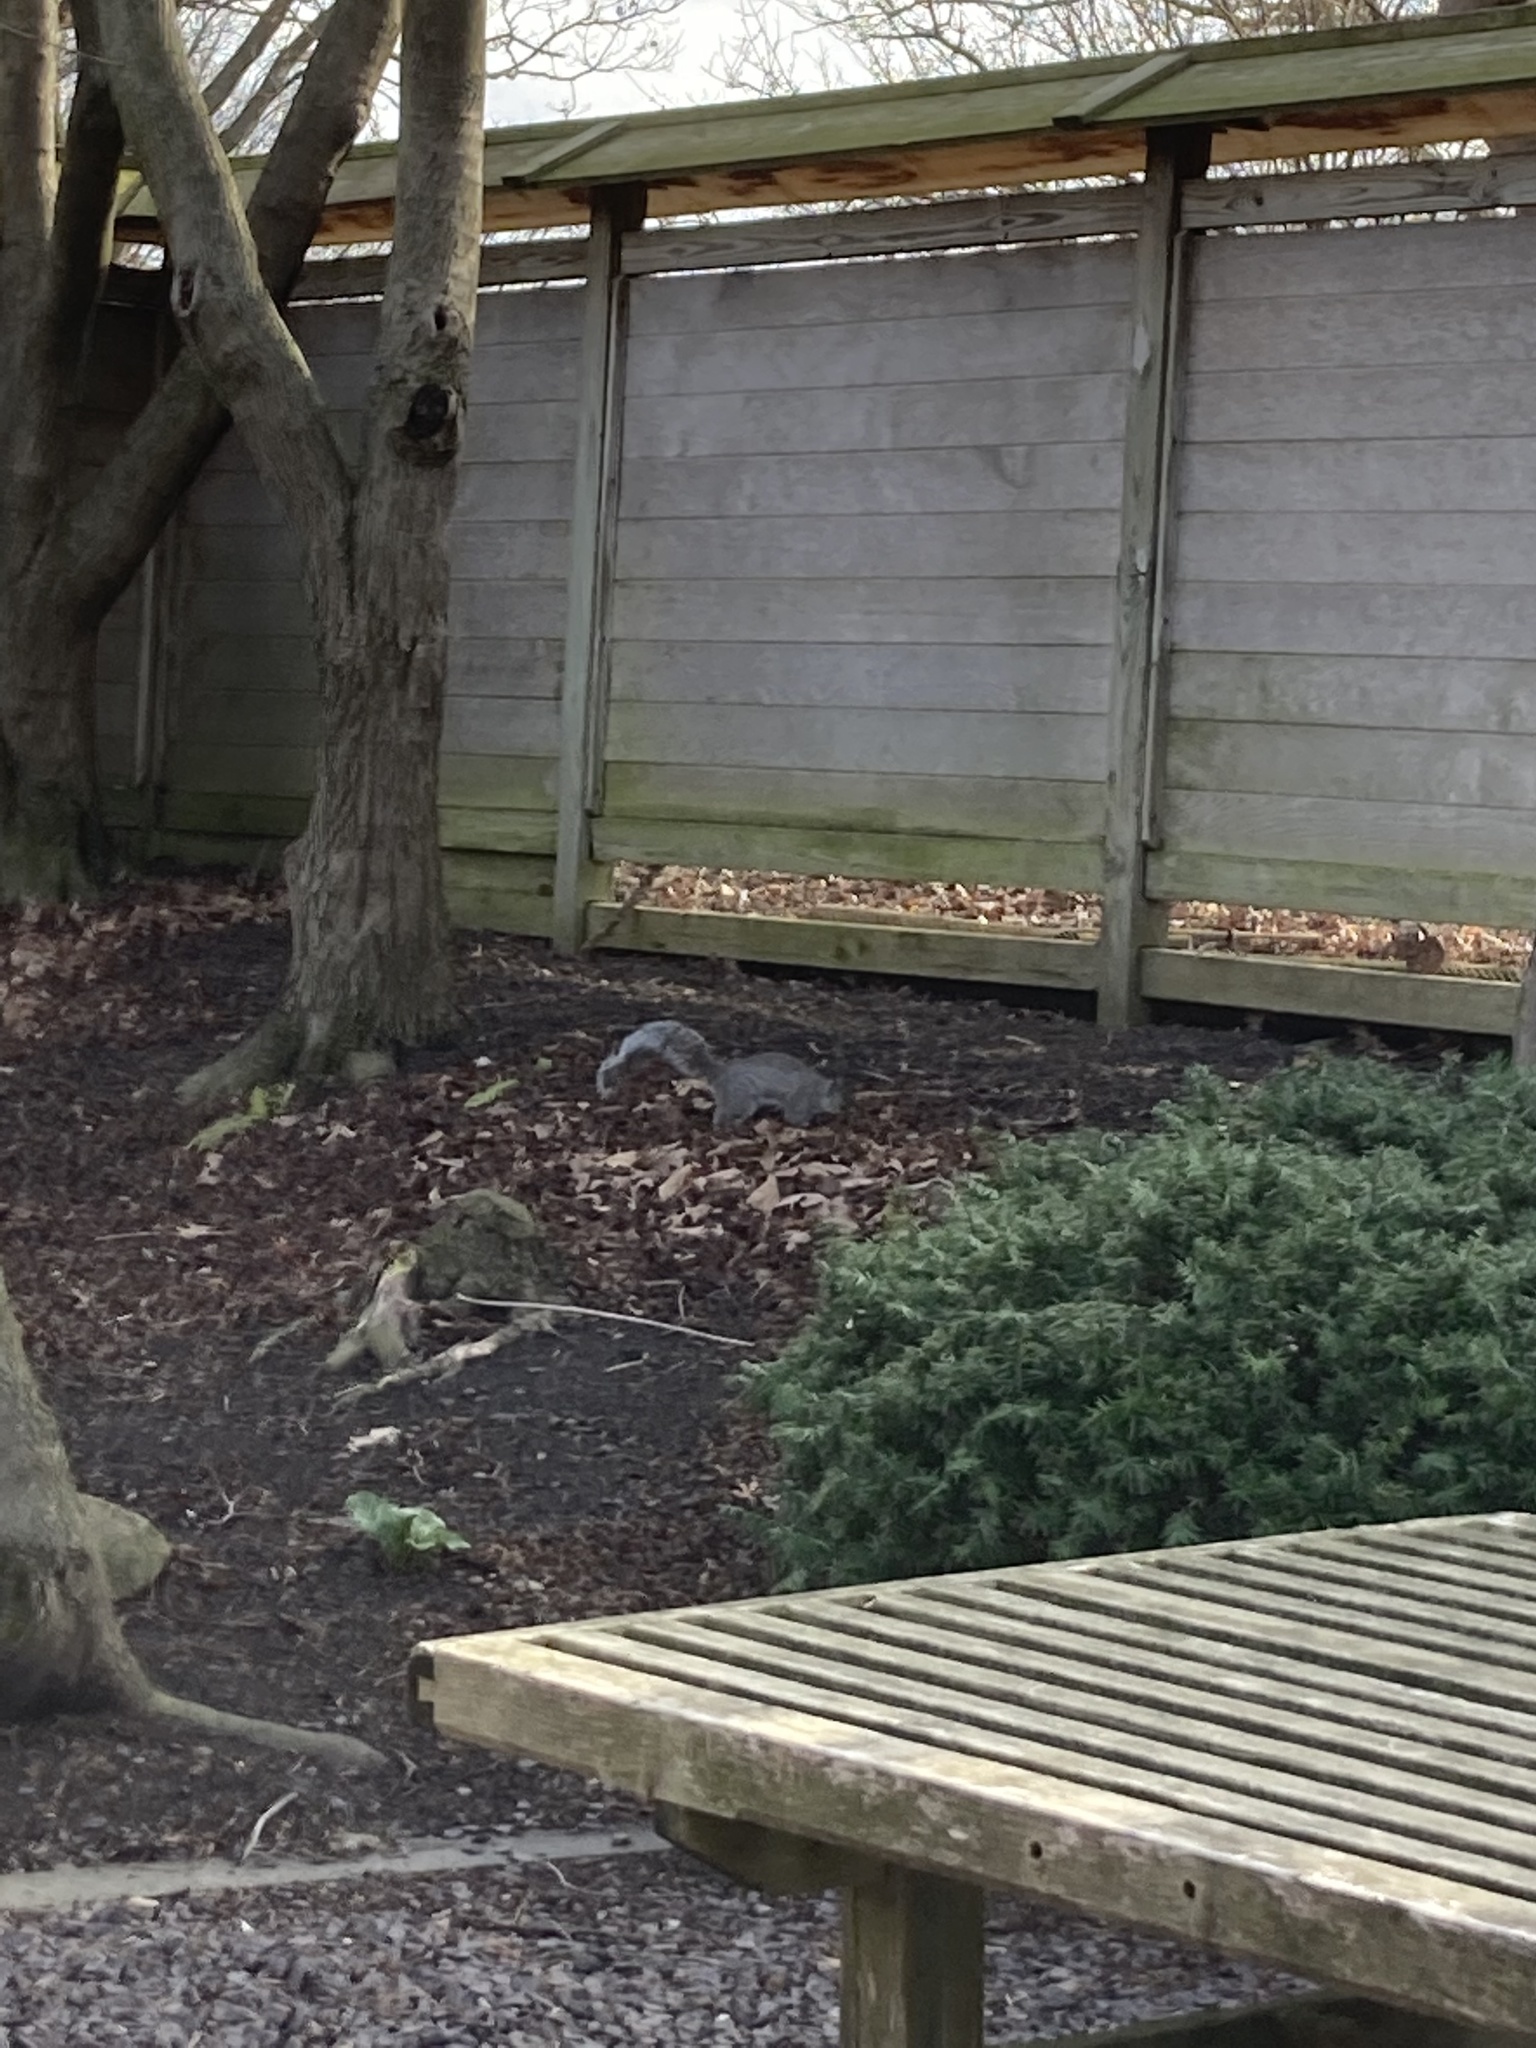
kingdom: Animalia
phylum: Chordata
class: Mammalia
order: Rodentia
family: Sciuridae
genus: Sciurus
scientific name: Sciurus carolinensis
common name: Eastern gray squirrel
